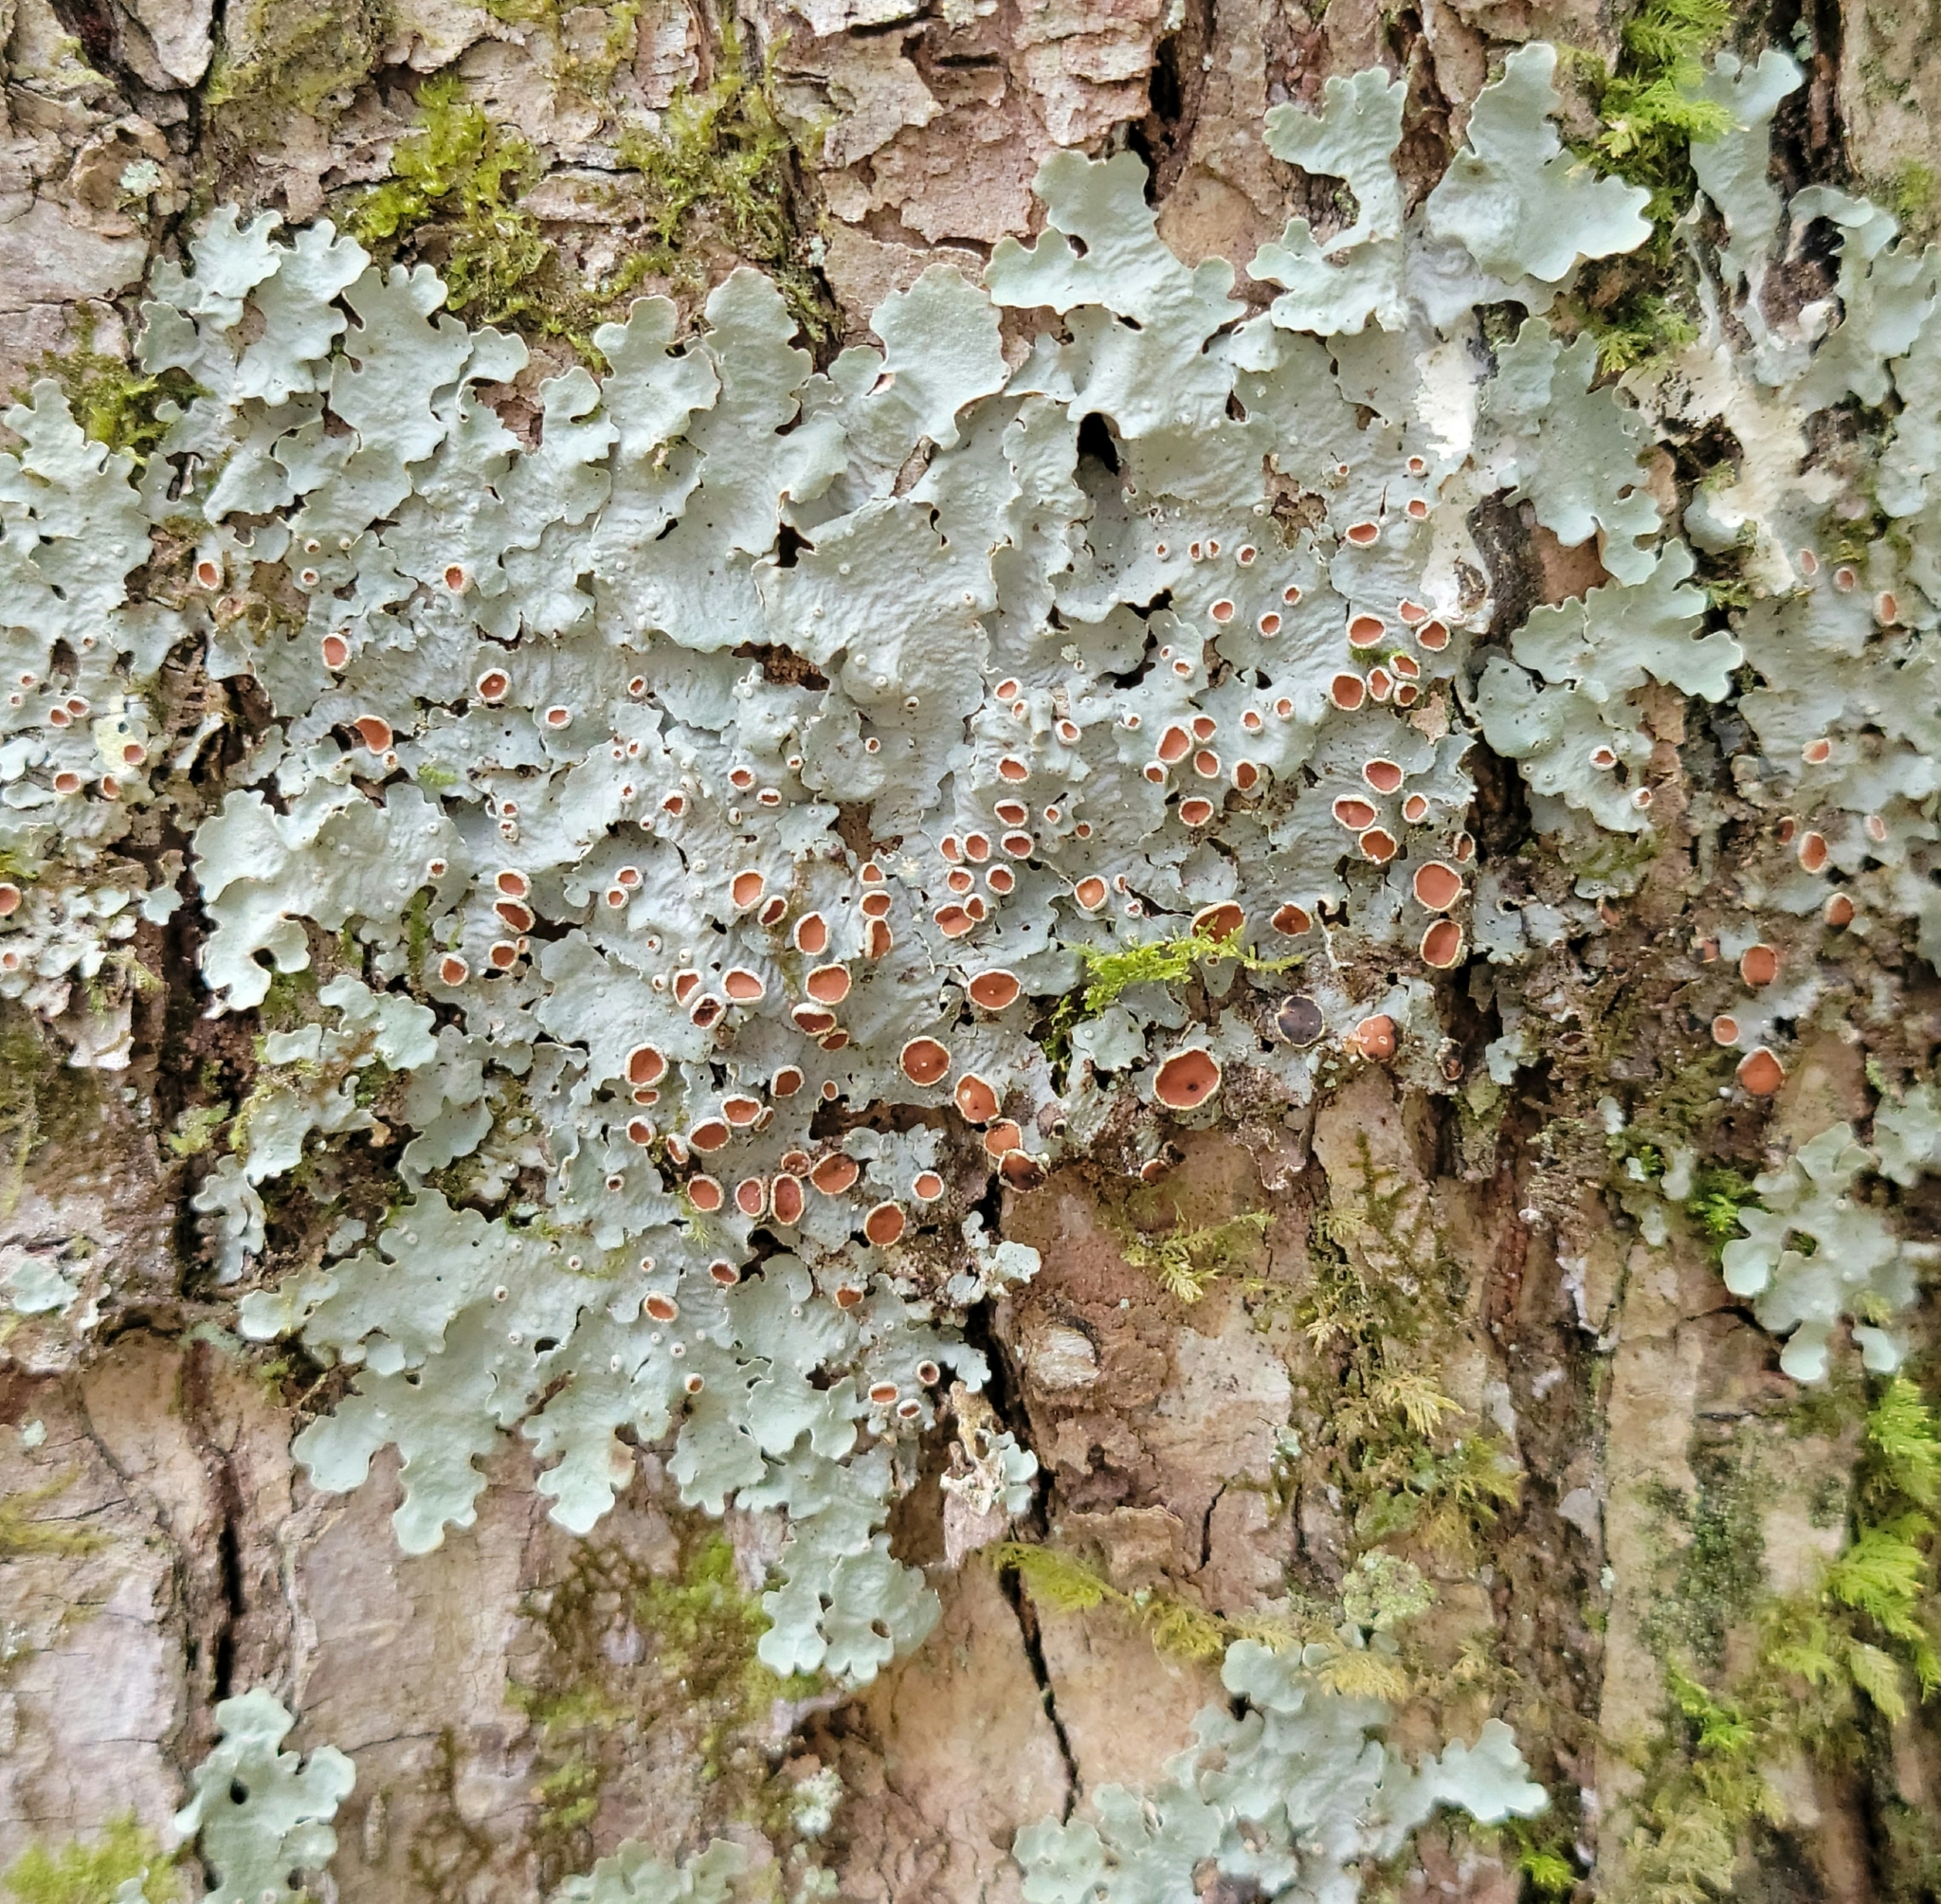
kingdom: Fungi
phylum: Ascomycota
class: Lecanoromycetes
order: Peltigerales
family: Lobariaceae
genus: Ricasolia
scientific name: Ricasolia quercizans
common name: Smooth lungwort
